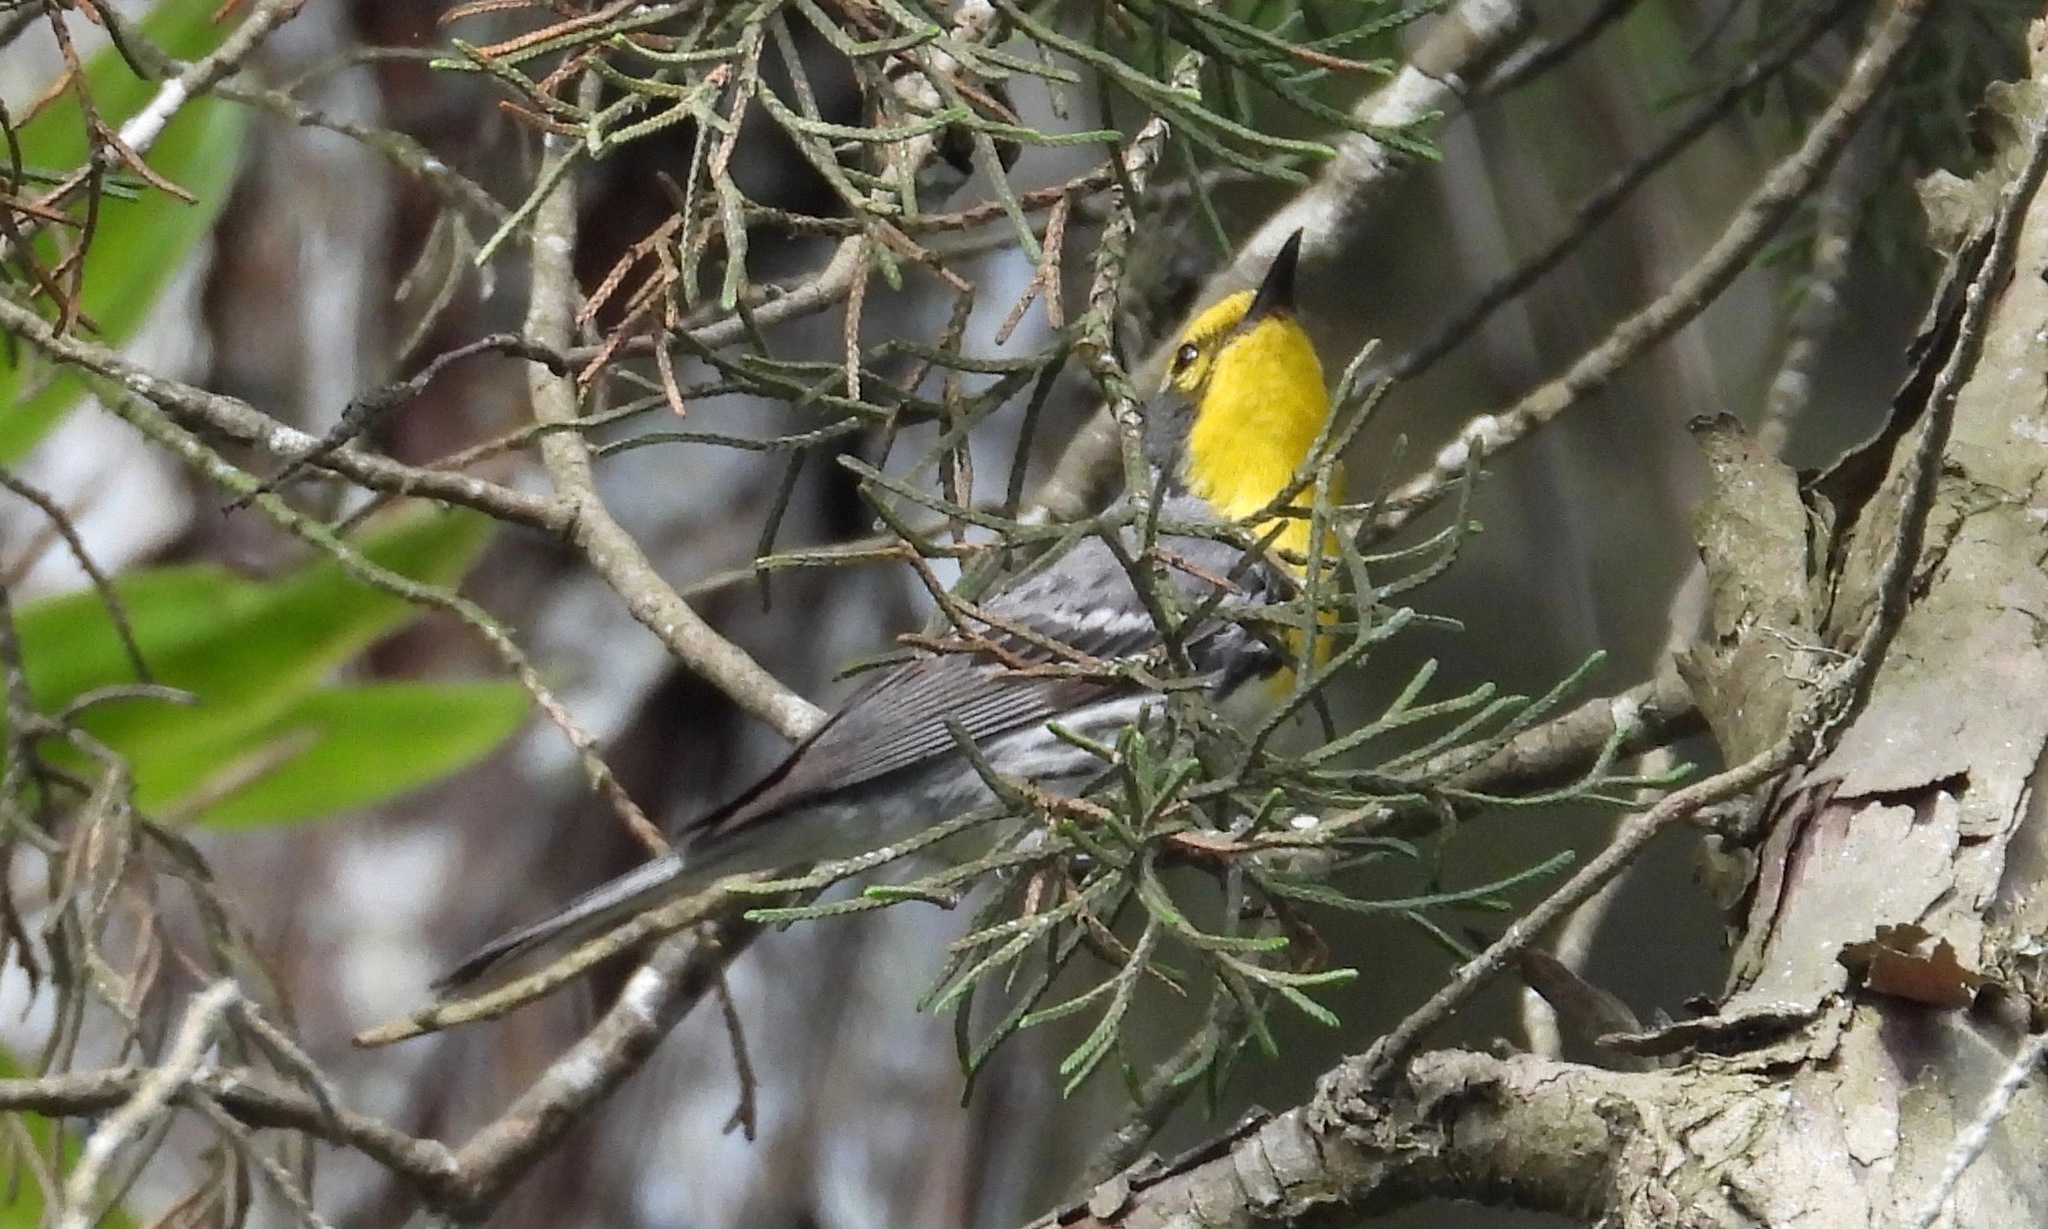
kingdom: Animalia
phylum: Chordata
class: Aves
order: Passeriformes
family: Parulidae
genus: Setophaga
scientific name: Setophaga graciae
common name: Grace's warbler
